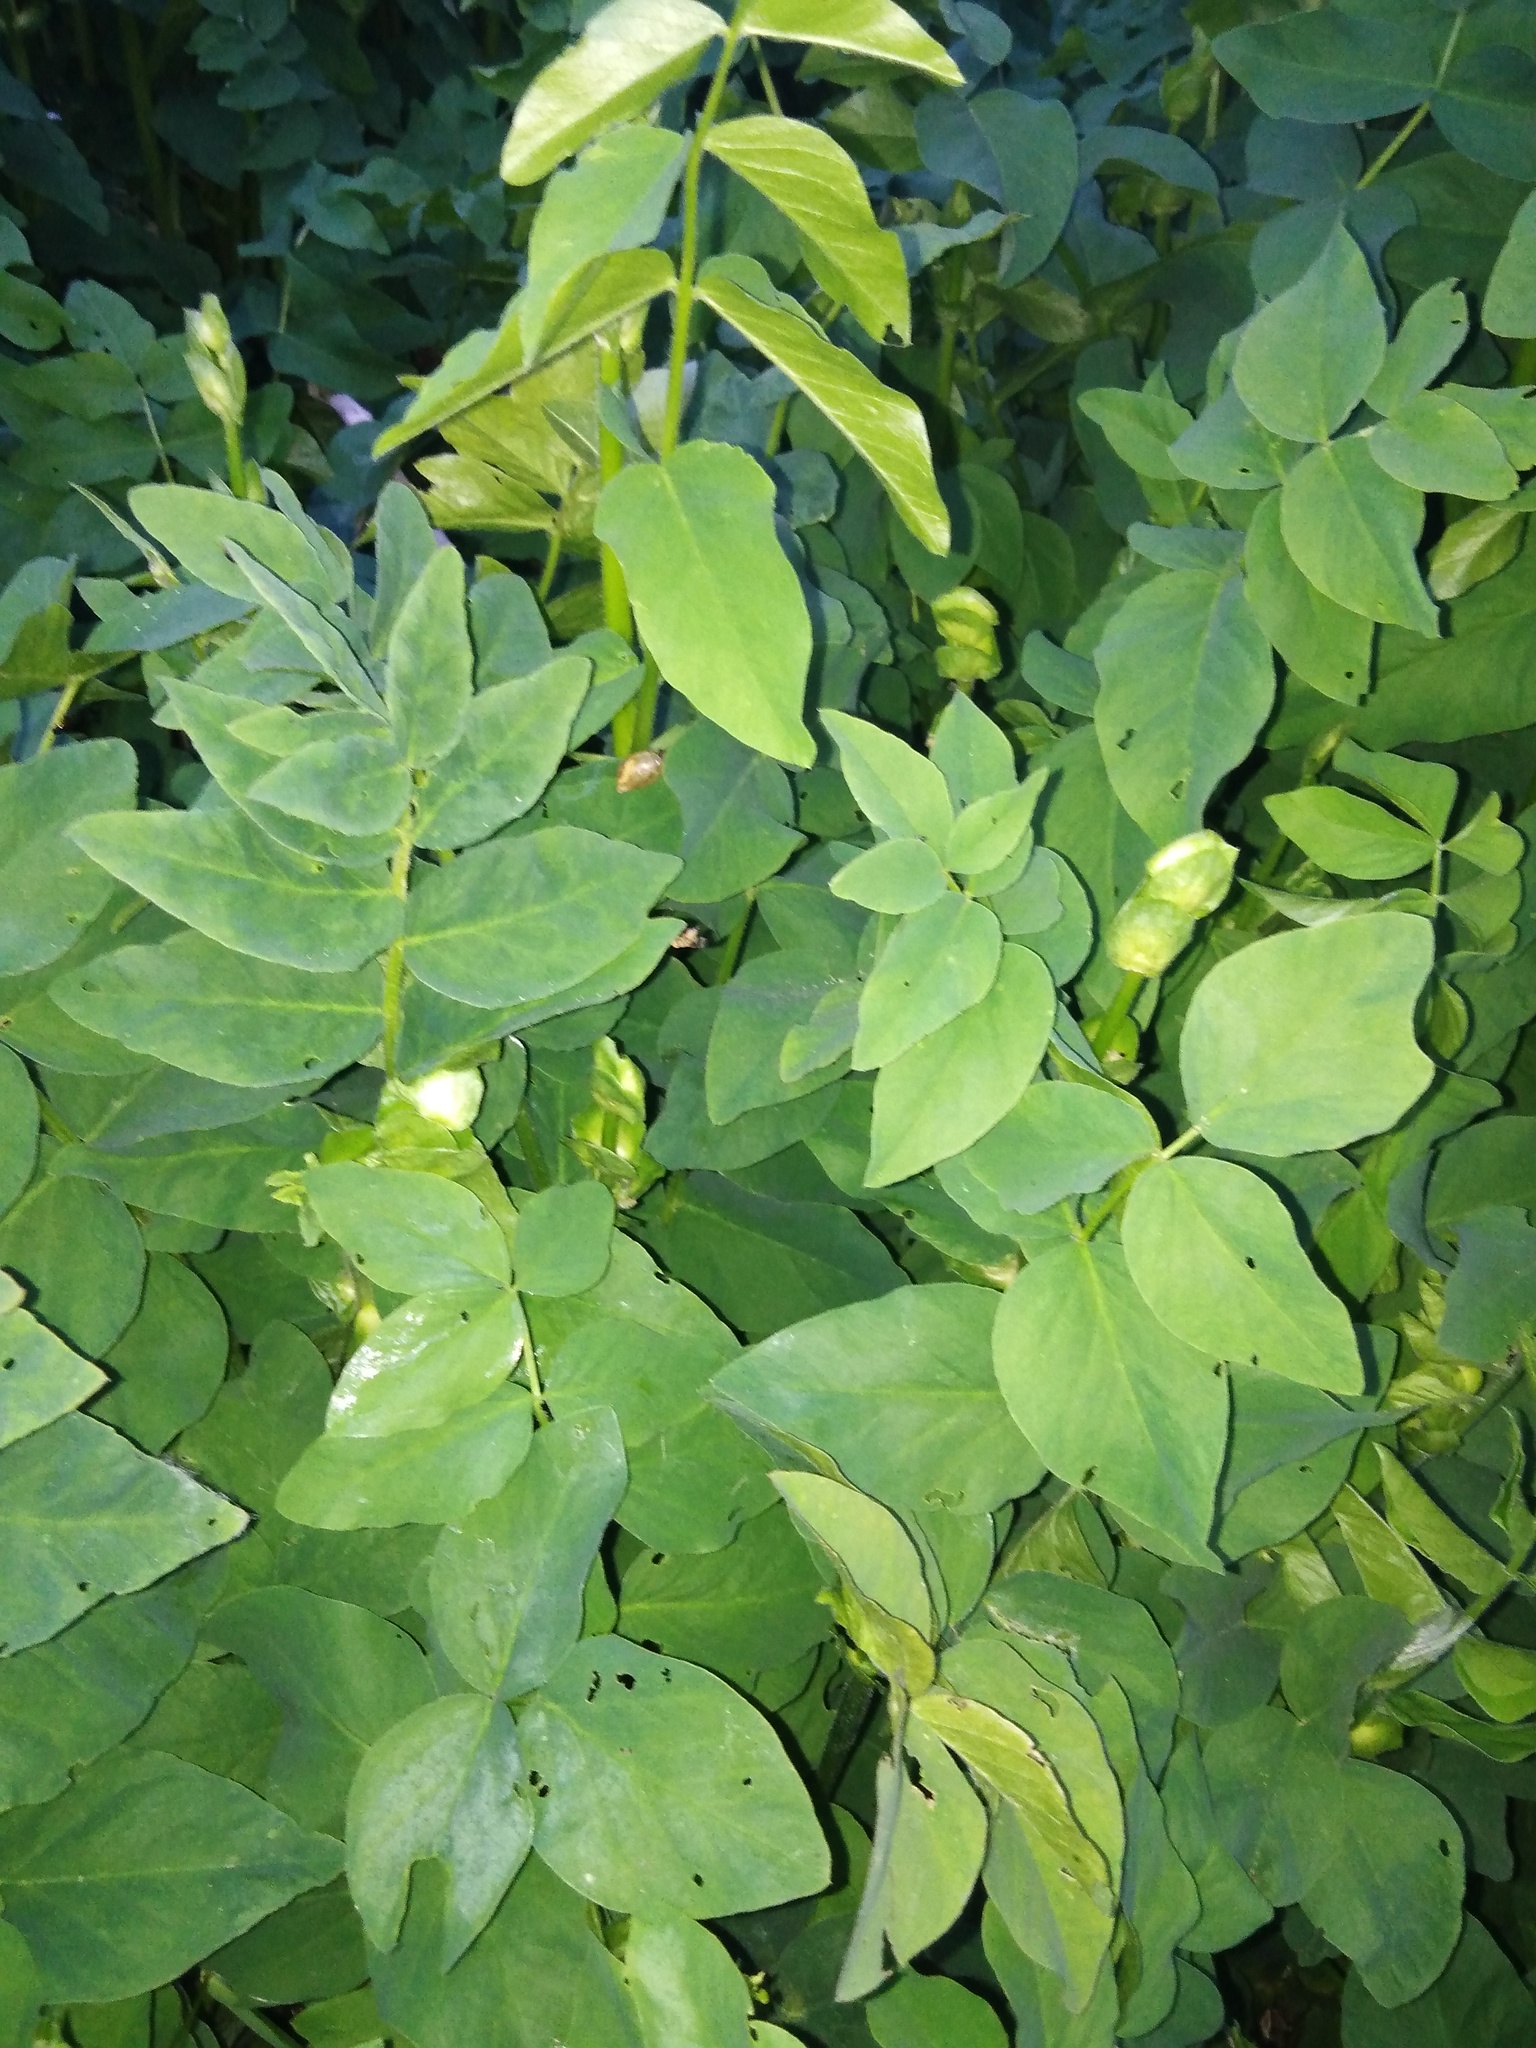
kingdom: Plantae
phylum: Tracheophyta
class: Magnoliopsida
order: Fabales
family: Fabaceae
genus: Galega
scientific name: Galega orientalis
